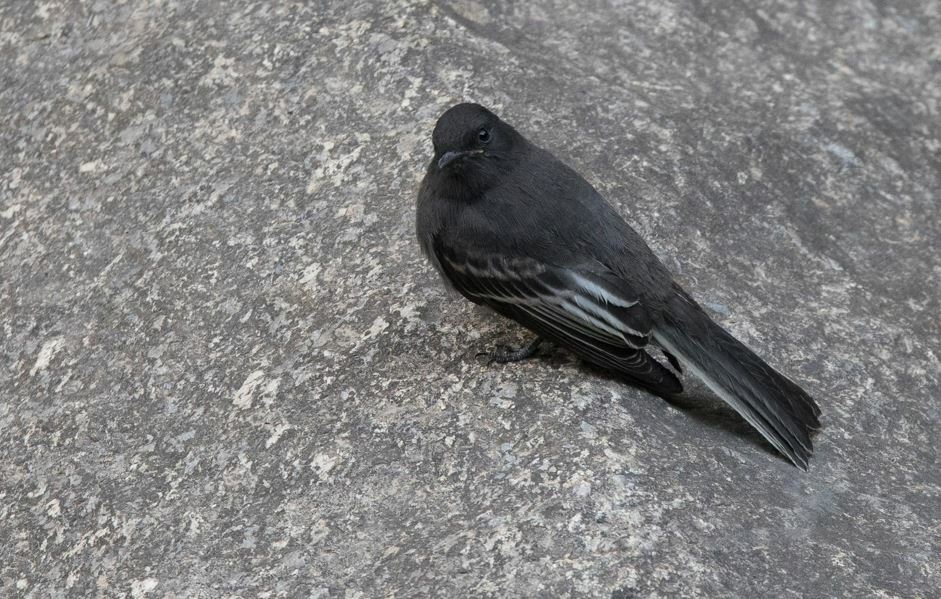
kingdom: Animalia
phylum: Chordata
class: Aves
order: Passeriformes
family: Tyrannidae
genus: Sayornis
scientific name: Sayornis nigricans
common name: Black phoebe
